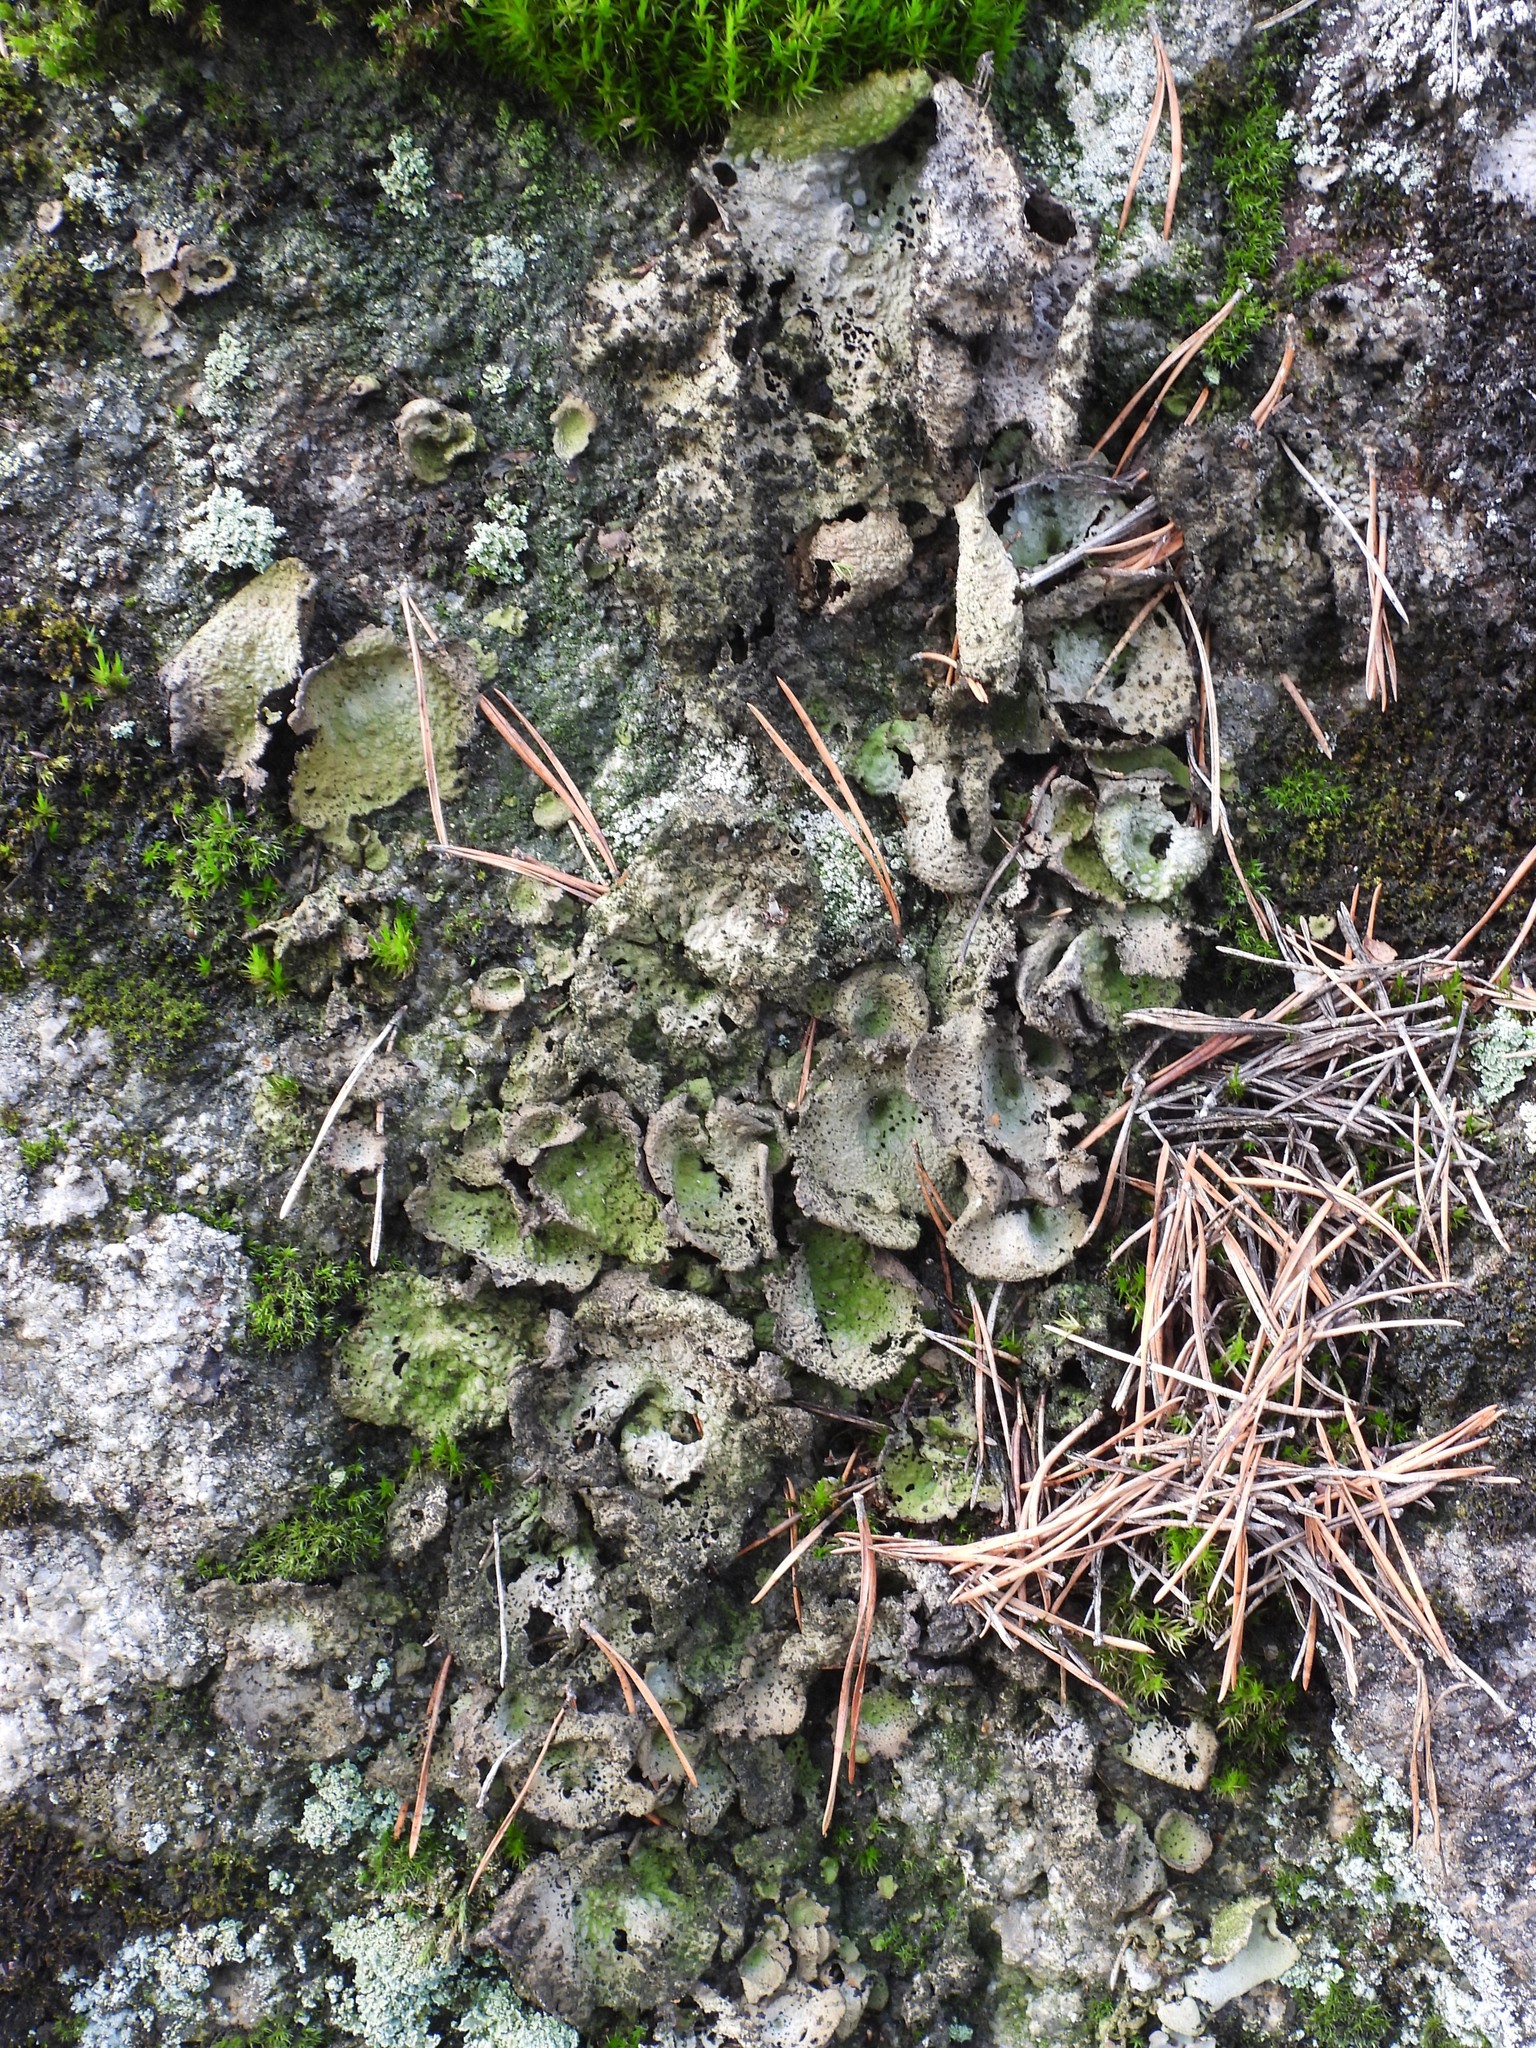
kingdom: Fungi
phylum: Ascomycota
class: Lecanoromycetes
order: Umbilicariales
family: Umbilicariaceae
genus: Lasallia
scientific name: Lasallia pustulata
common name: Blistered toadskin lichen
